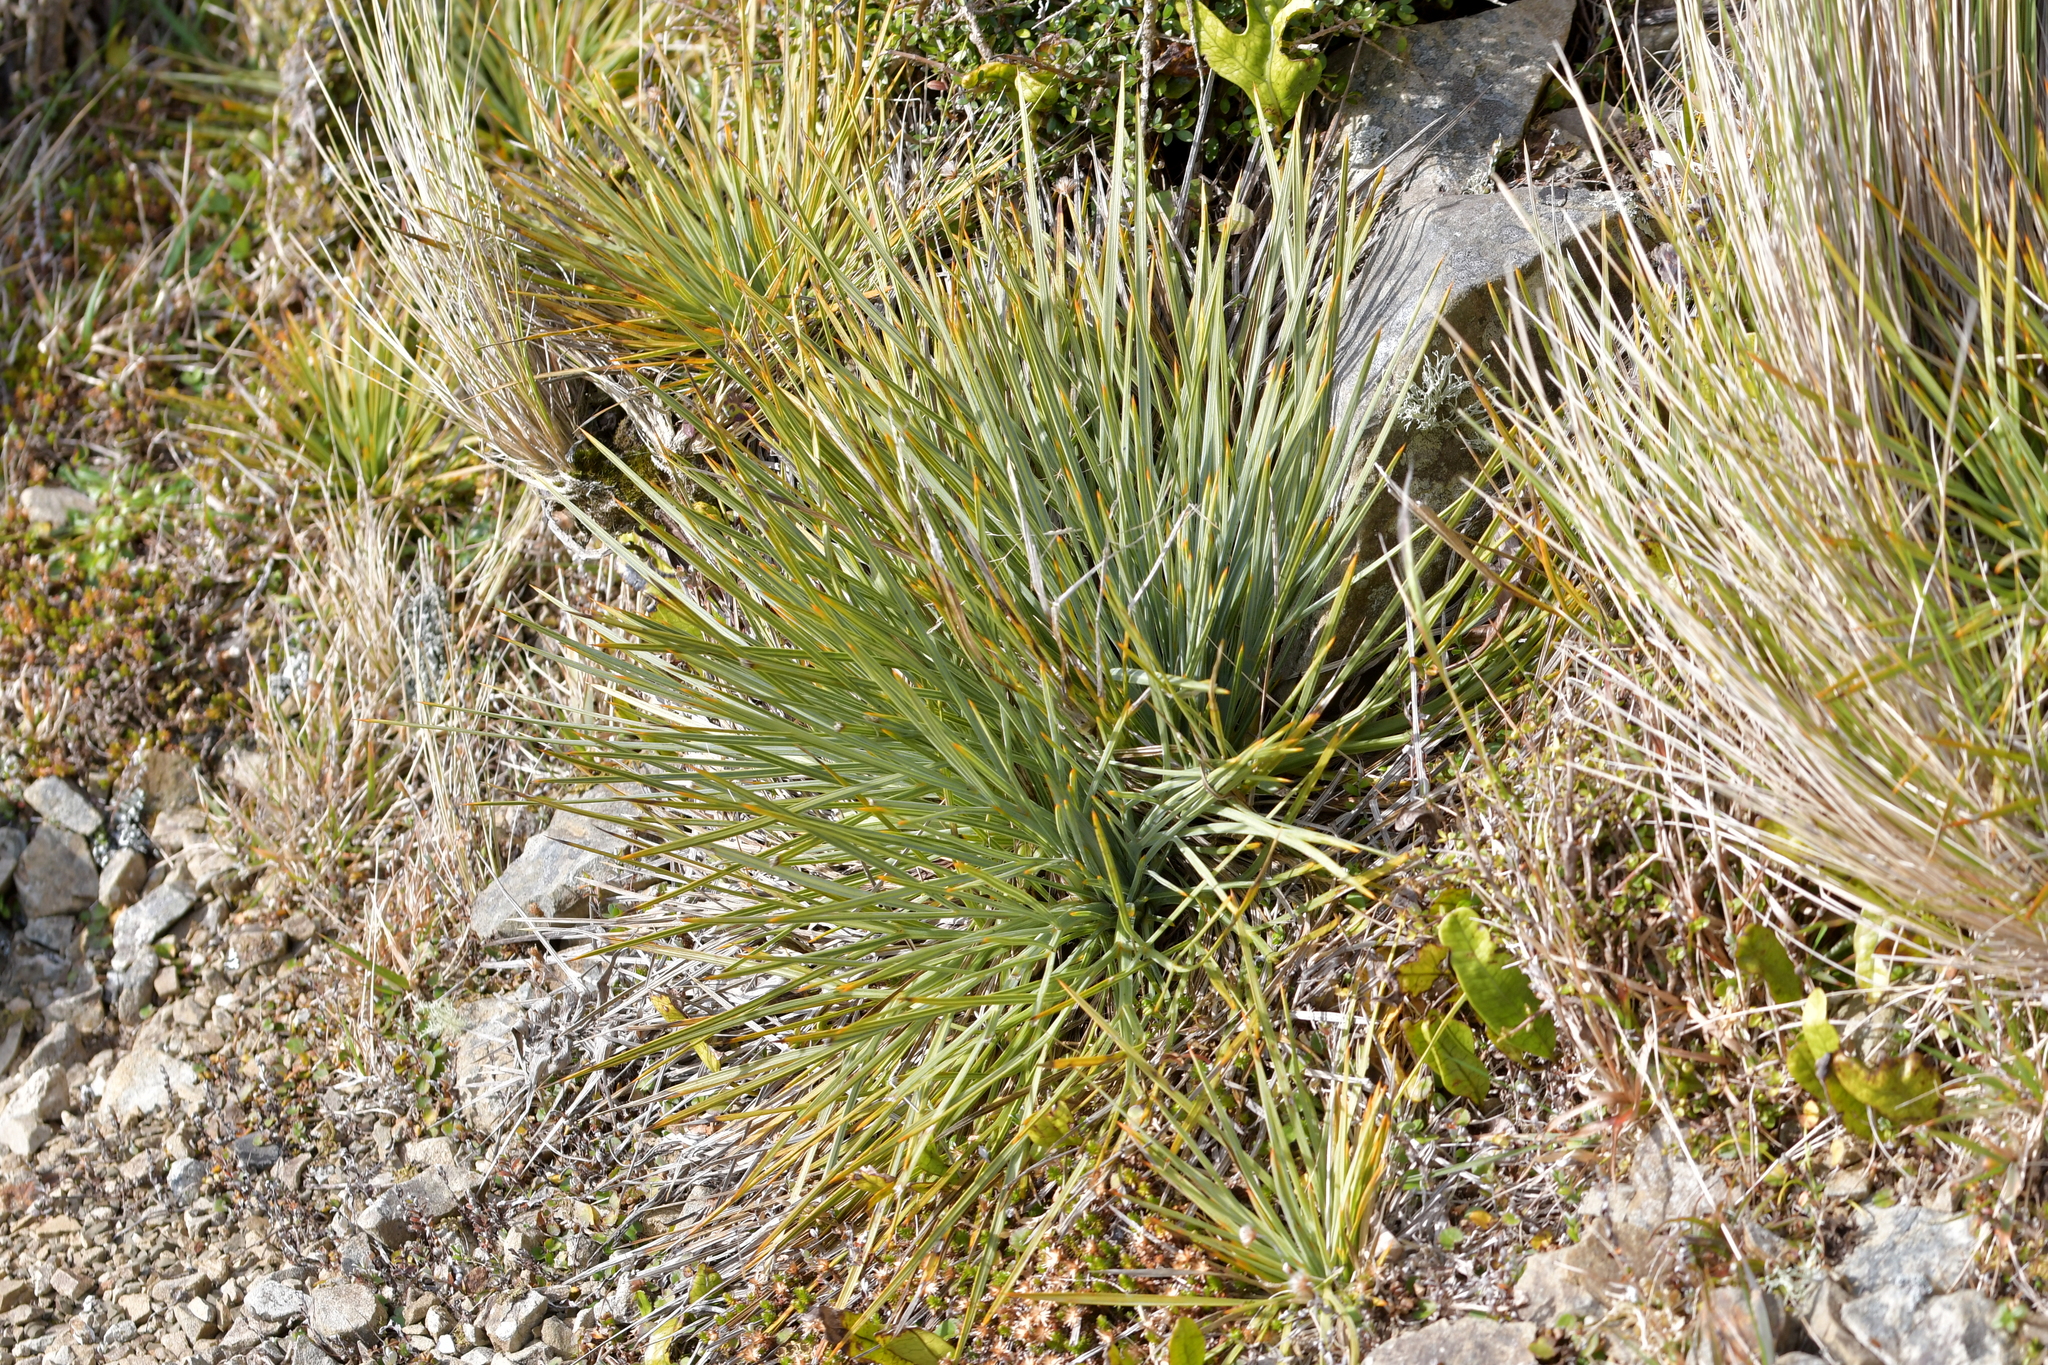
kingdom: Plantae
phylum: Tracheophyta
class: Magnoliopsida
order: Apiales
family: Apiaceae
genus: Aciphylla
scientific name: Aciphylla squarrosa
